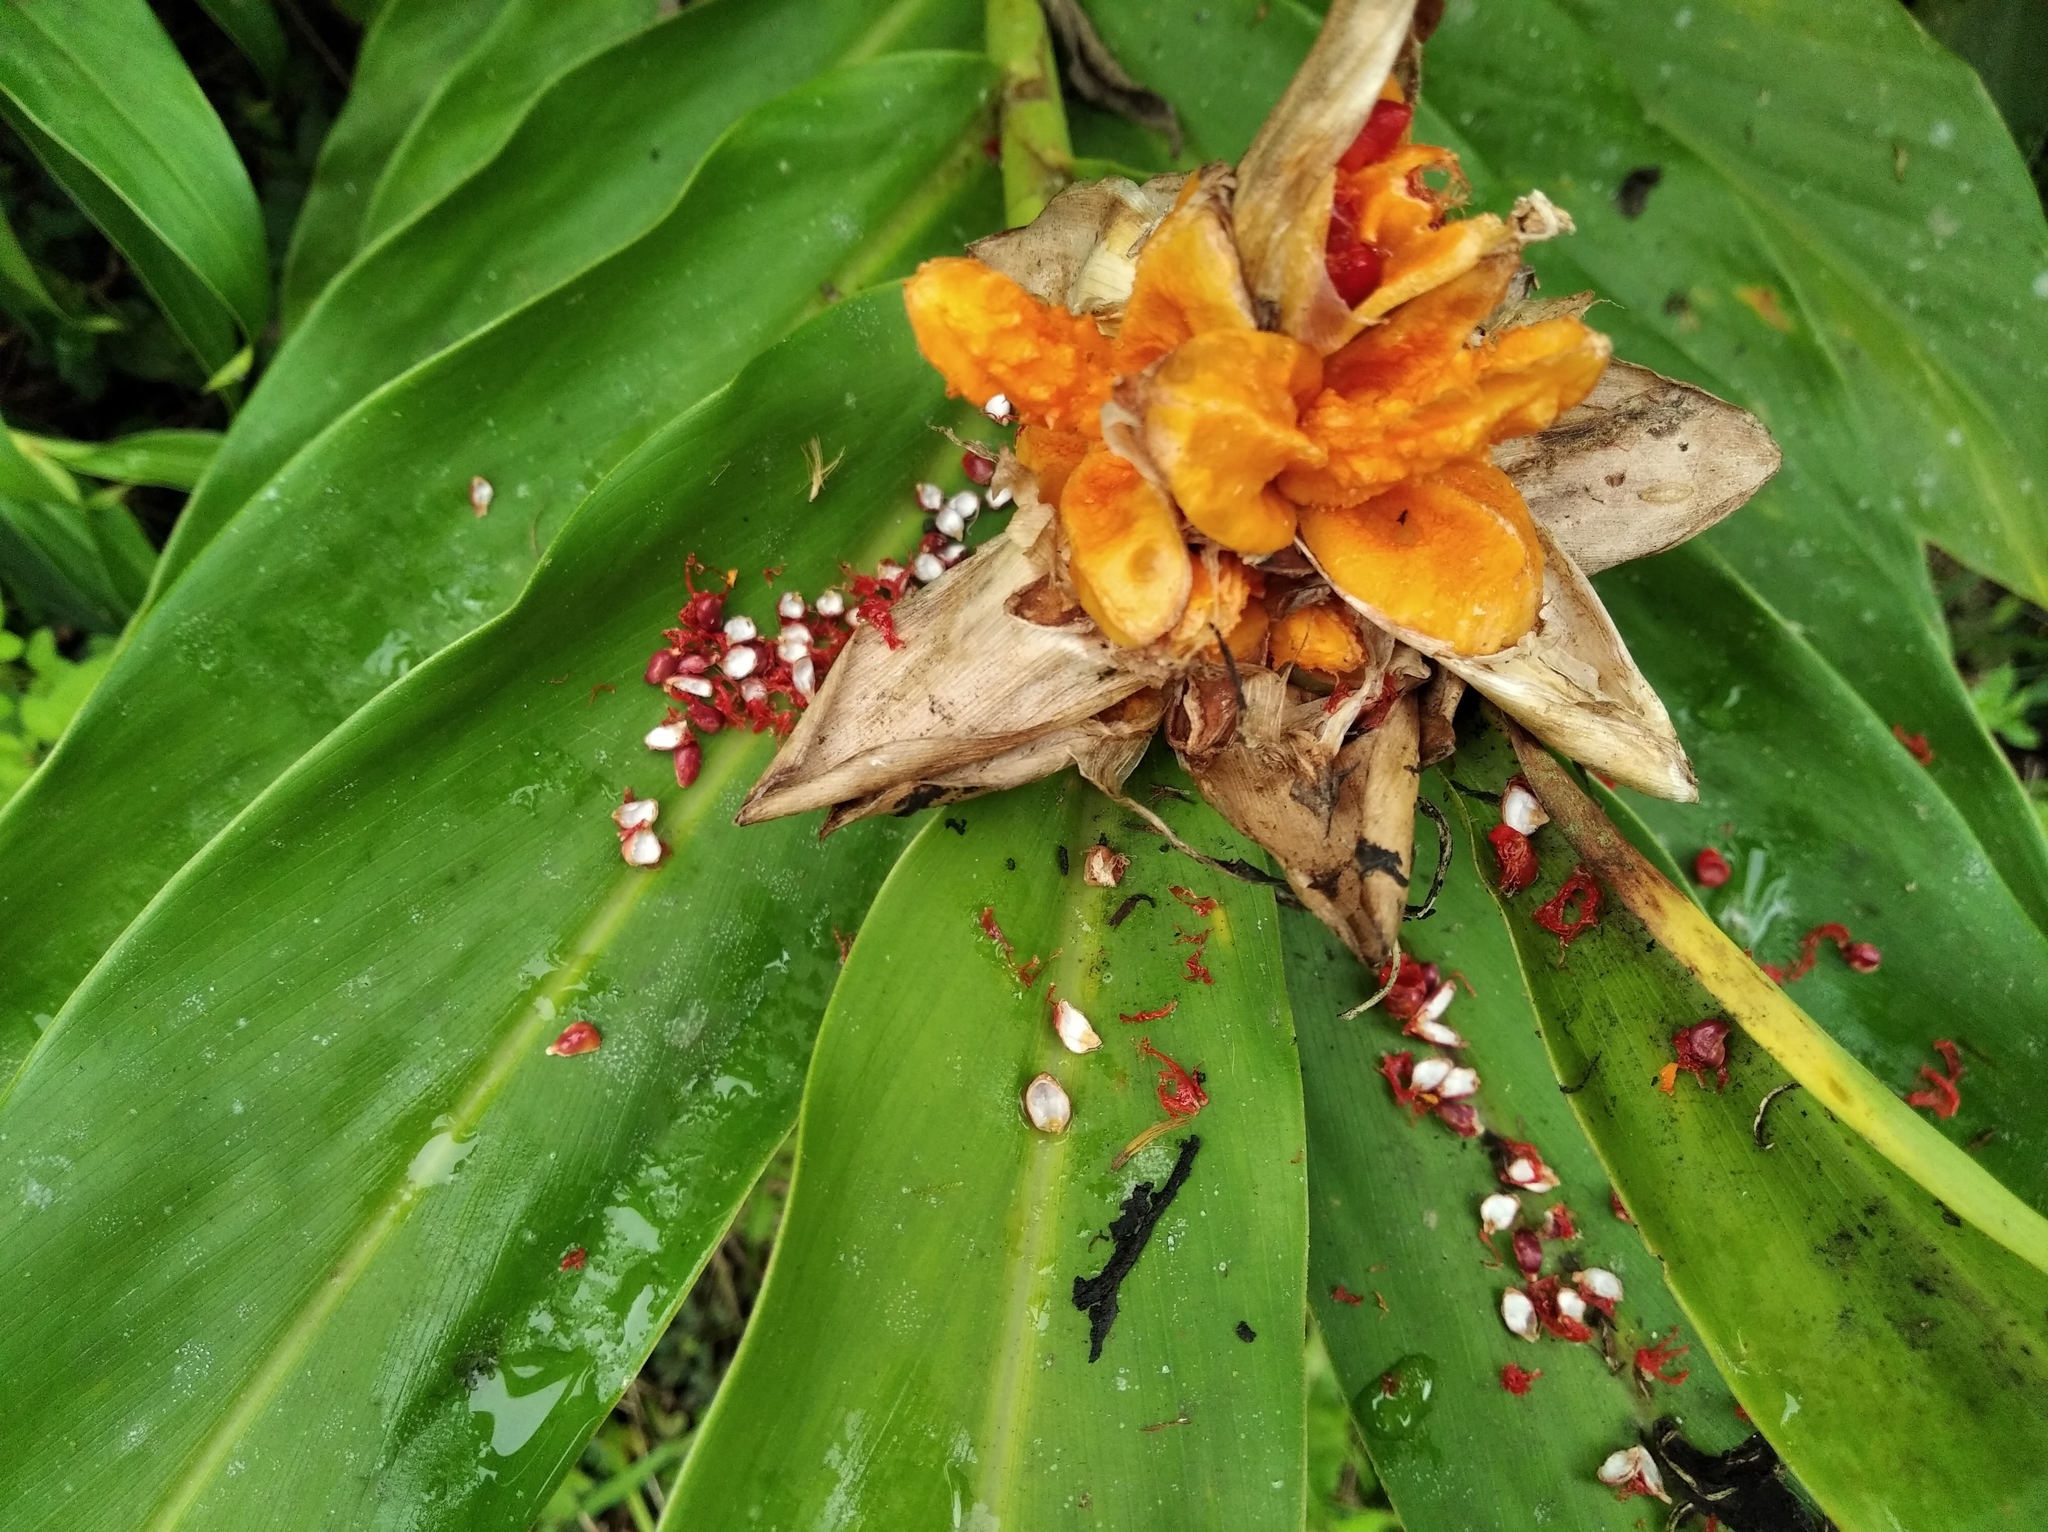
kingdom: Plantae
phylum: Tracheophyta
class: Liliopsida
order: Zingiberales
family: Zingiberaceae
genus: Hedychium
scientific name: Hedychium coronarium
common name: White garland-lily
